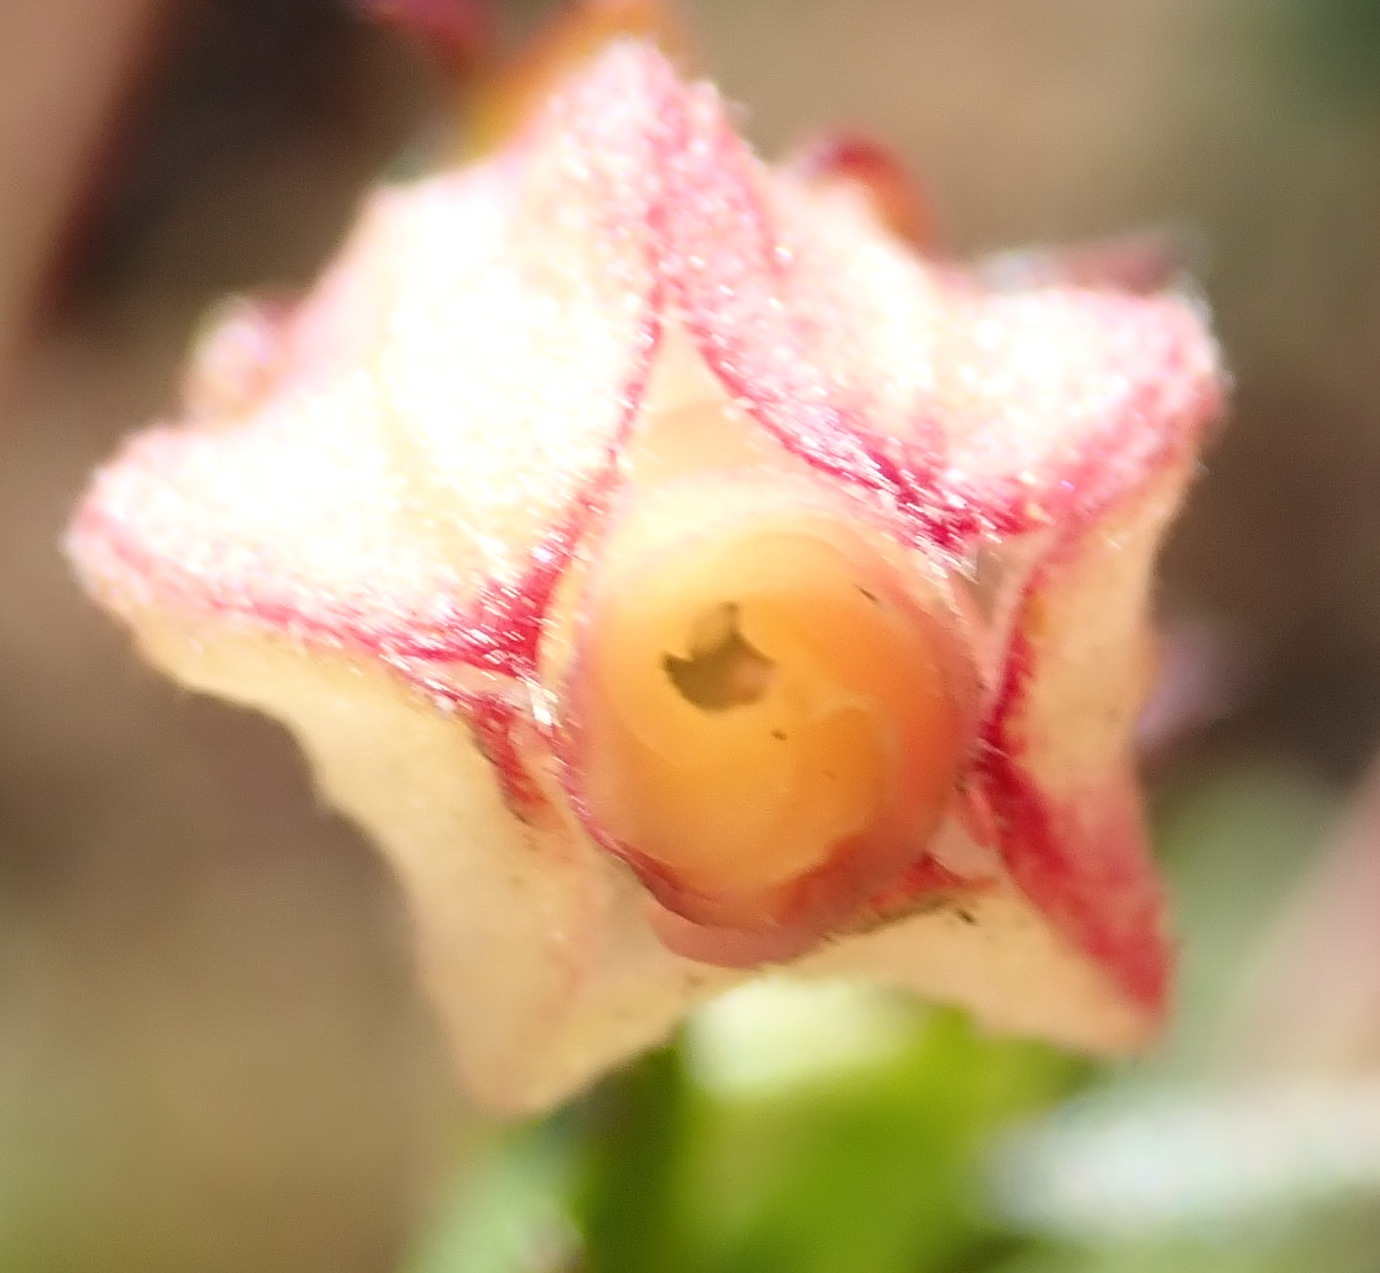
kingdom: Plantae
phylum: Tracheophyta
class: Magnoliopsida
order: Malvales
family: Malvaceae
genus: Hermannia
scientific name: Hermannia angularis
